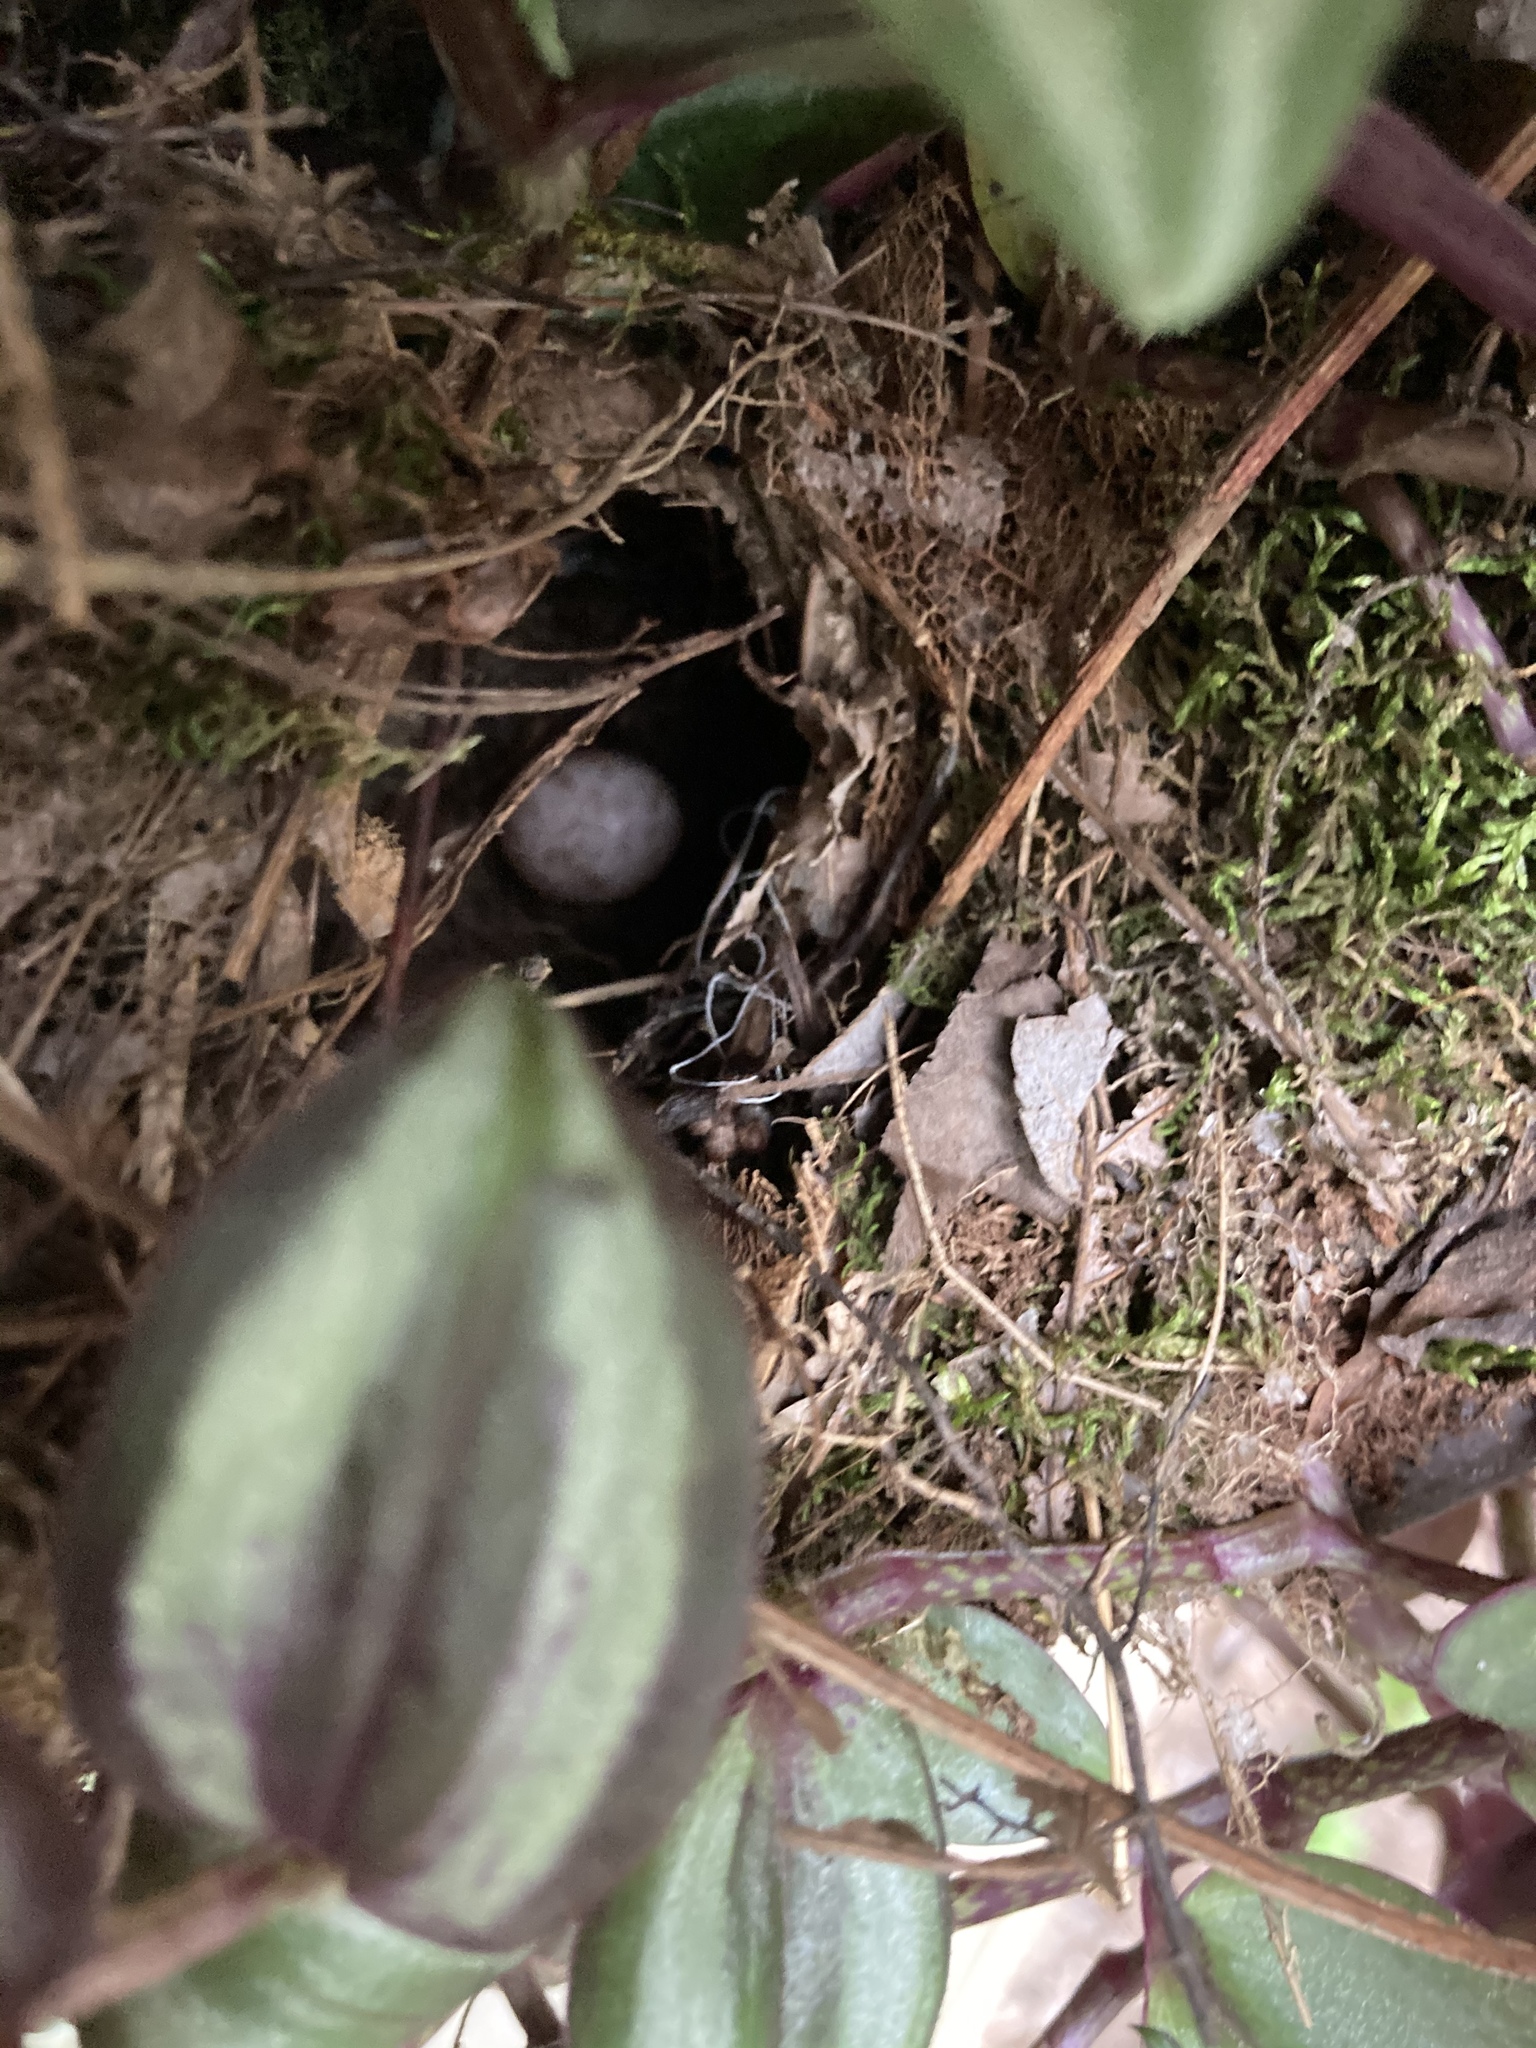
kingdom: Animalia
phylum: Chordata
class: Aves
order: Passeriformes
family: Troglodytidae
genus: Thryothorus
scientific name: Thryothorus ludovicianus
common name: Carolina wren
